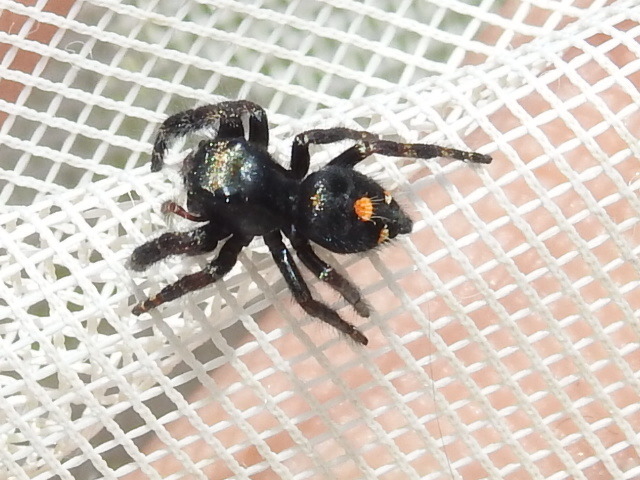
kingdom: Animalia
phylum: Arthropoda
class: Arachnida
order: Araneae
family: Salticidae
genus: Phidippus
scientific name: Phidippus audax
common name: Bold jumper
